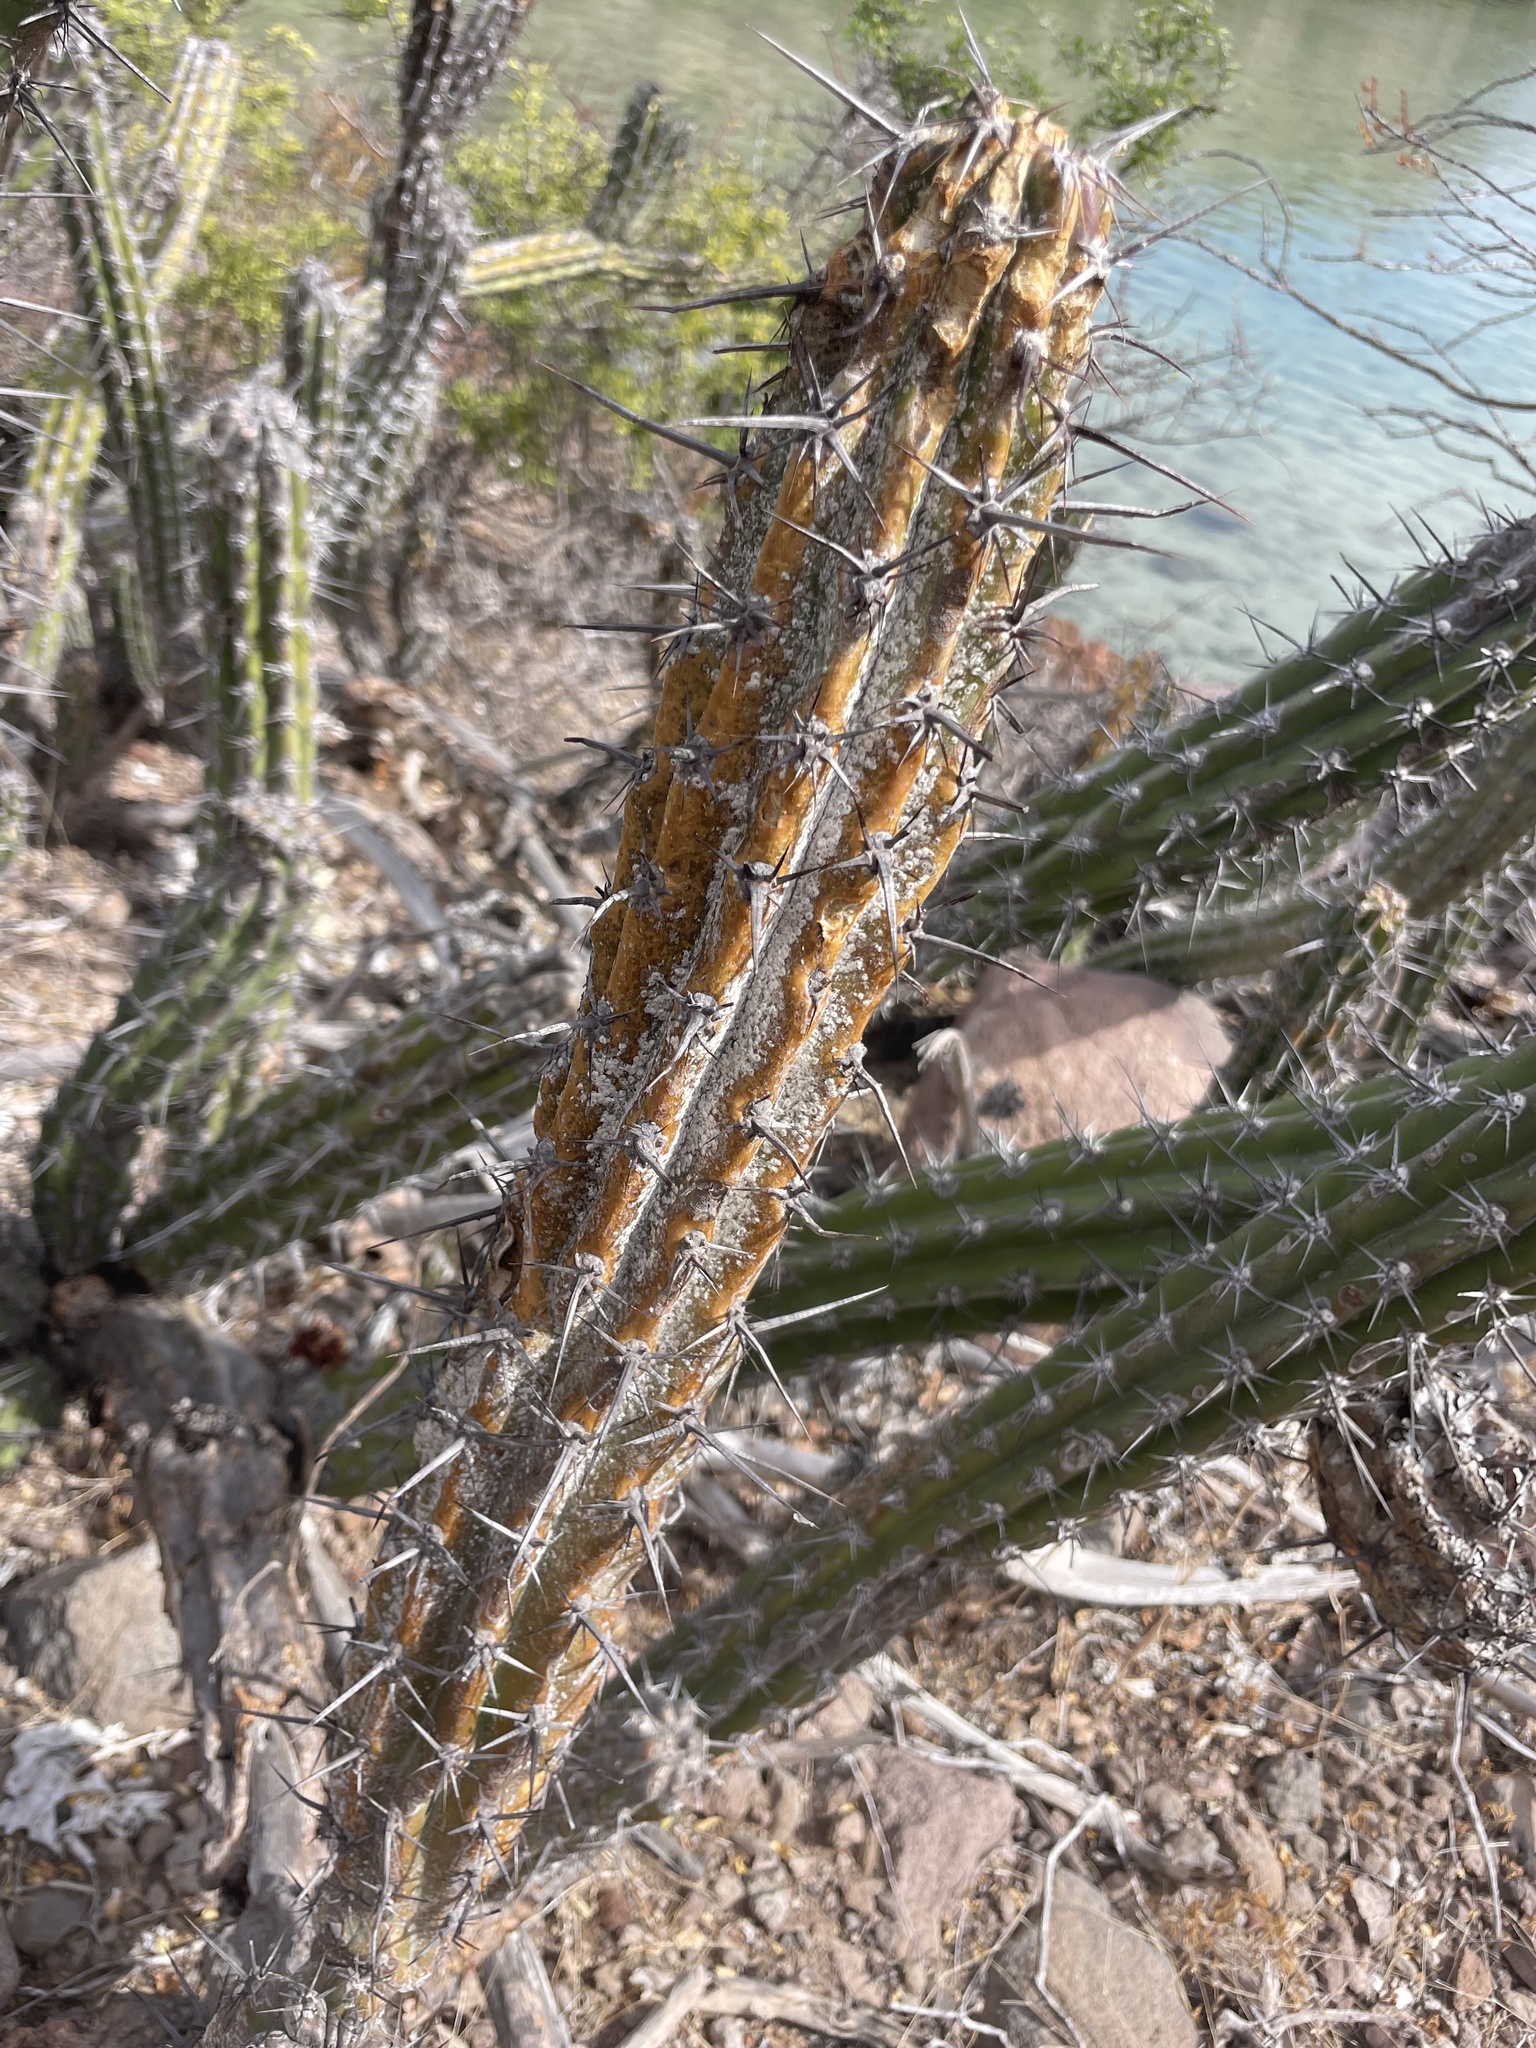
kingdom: Plantae
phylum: Tracheophyta
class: Magnoliopsida
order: Caryophyllales
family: Cactaceae
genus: Stenocereus
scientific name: Stenocereus gummosus
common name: Dagger cactus
